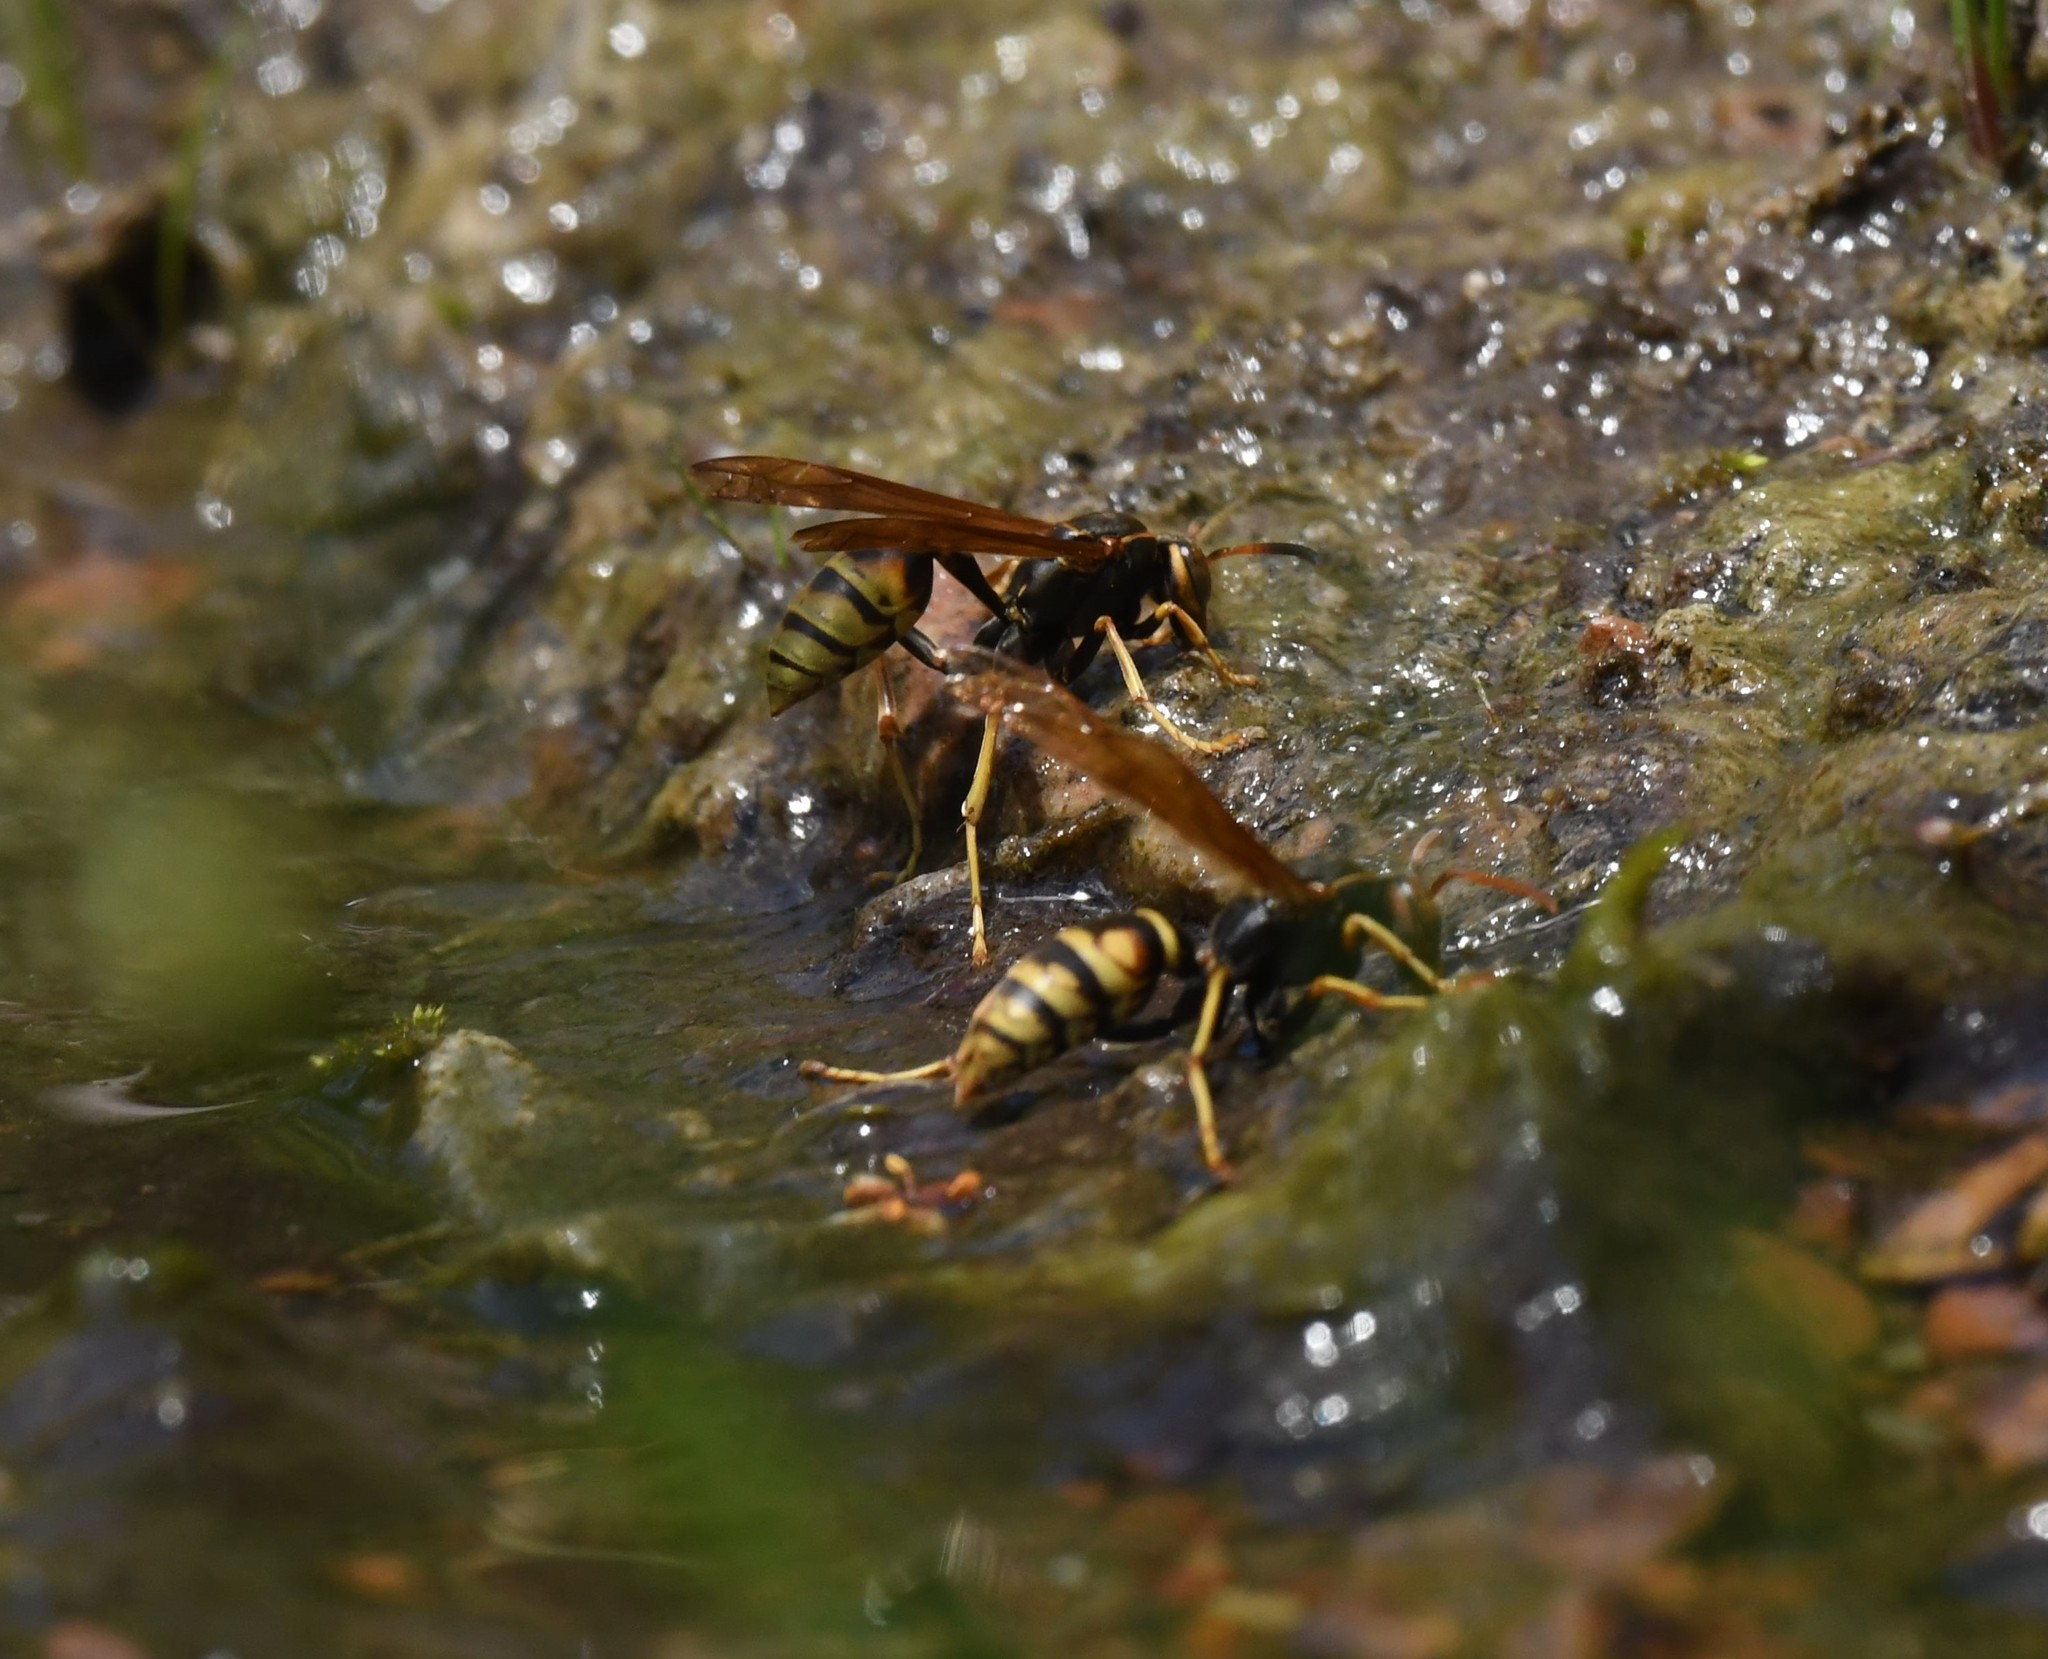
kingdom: Animalia
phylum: Arthropoda
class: Insecta
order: Hymenoptera
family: Eumenidae
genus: Polistes
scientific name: Polistes aurifer
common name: Paper wasp
